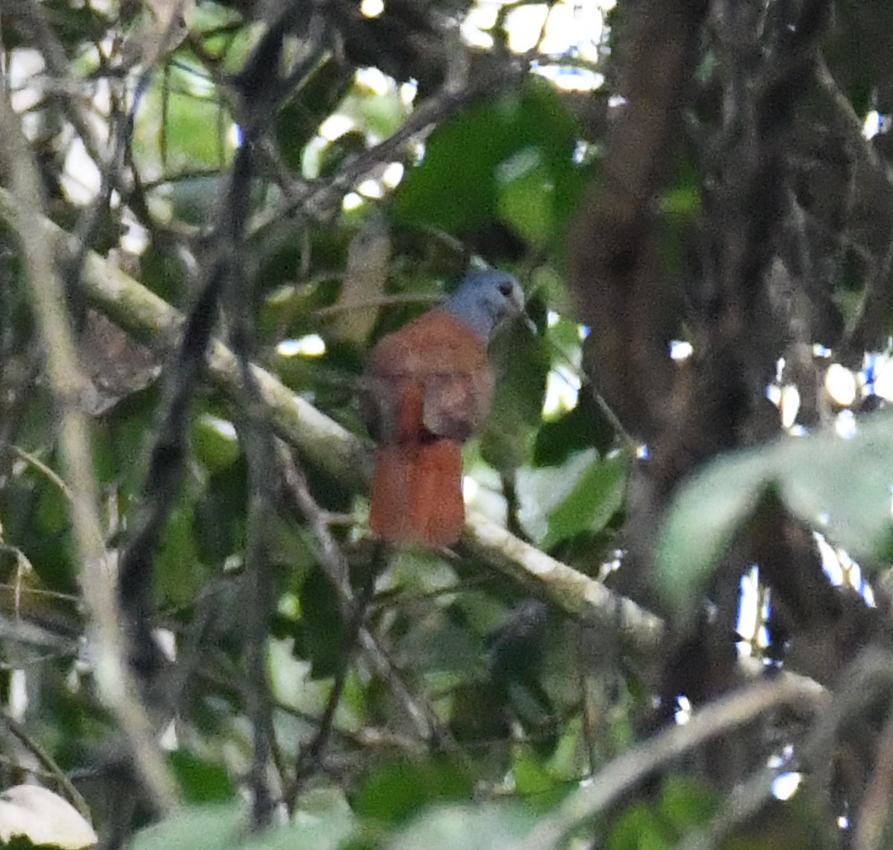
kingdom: Animalia
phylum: Chordata
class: Aves
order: Columbiformes
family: Columbidae
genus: Turtur
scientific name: Turtur brehmeri
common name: Blue-headed wood dove
